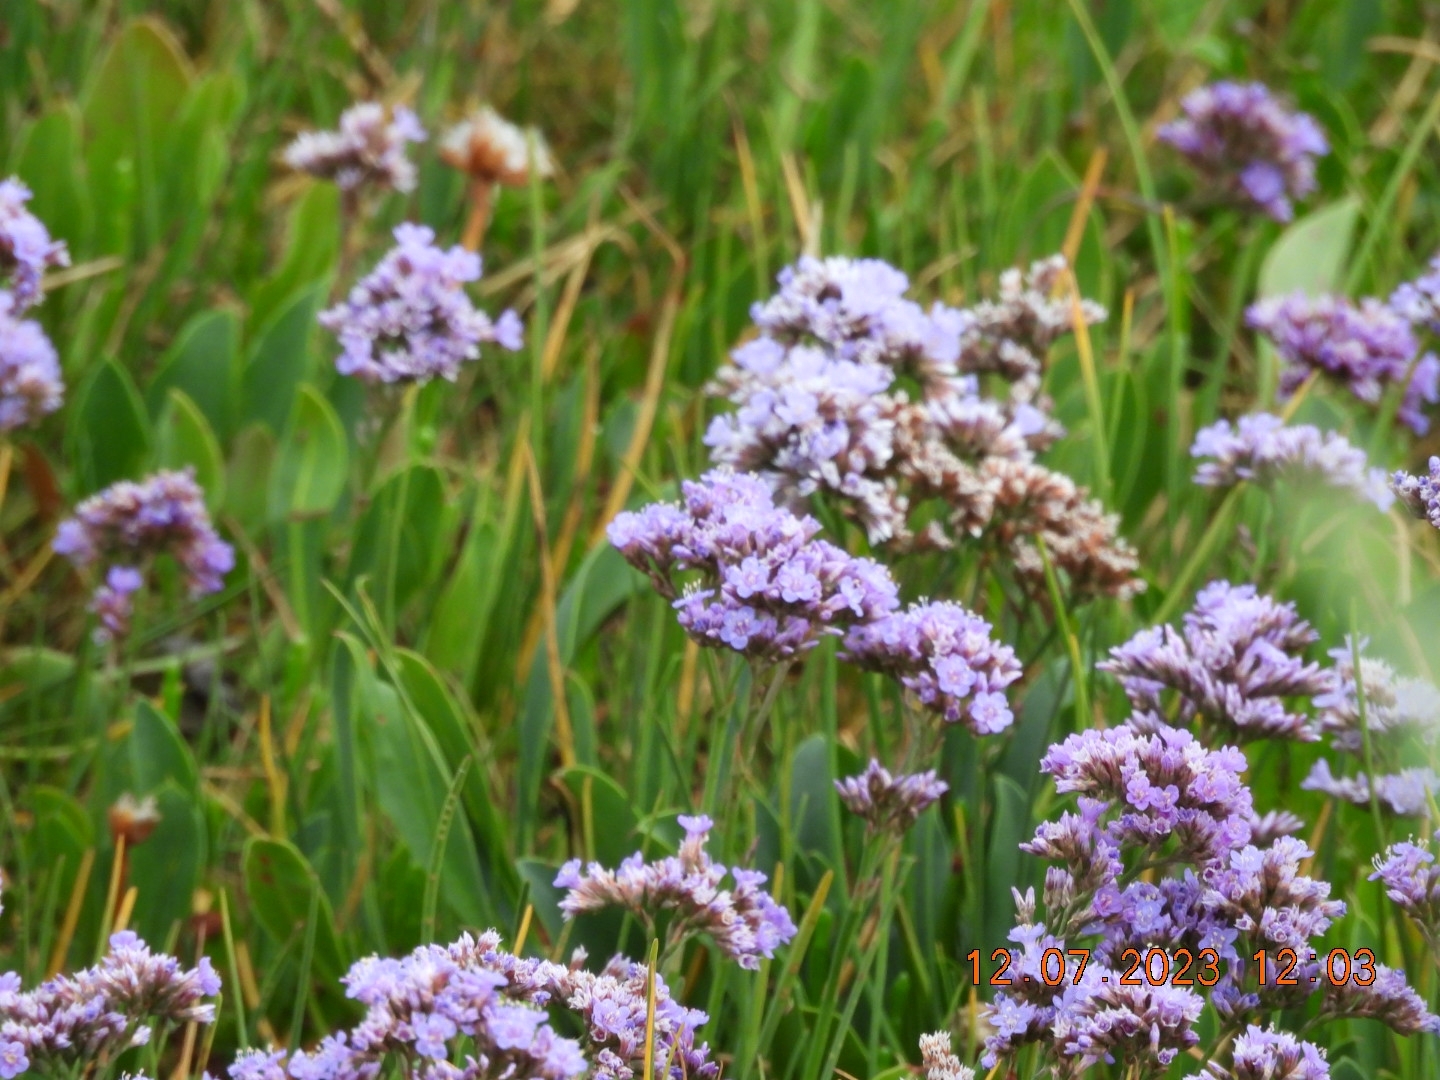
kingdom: Plantae
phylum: Tracheophyta
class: Magnoliopsida
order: Caryophyllales
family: Plumbaginaceae
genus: Limonium
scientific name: Limonium vulgare
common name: Common sea-lavender
